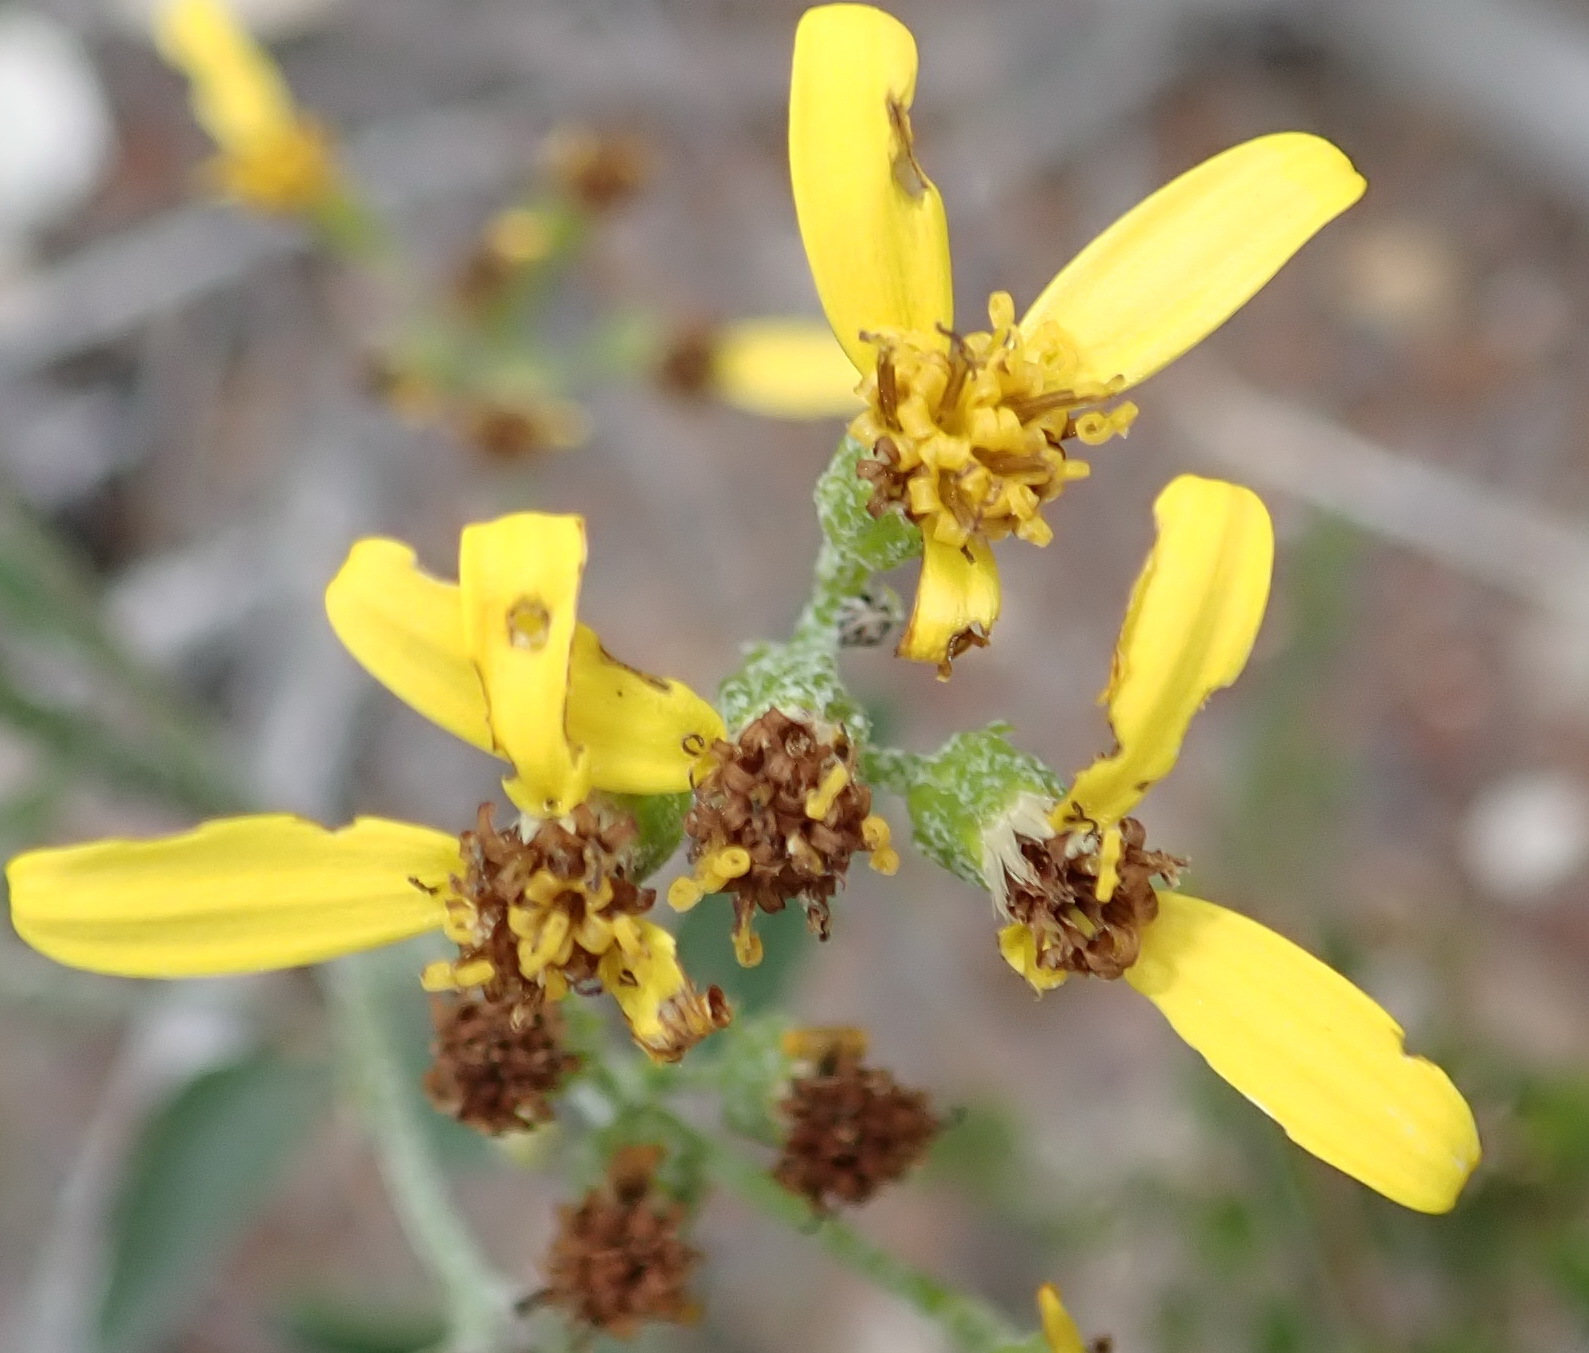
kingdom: Plantae
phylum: Tracheophyta
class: Magnoliopsida
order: Asterales
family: Asteraceae
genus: Senecio
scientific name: Senecio crenatus
